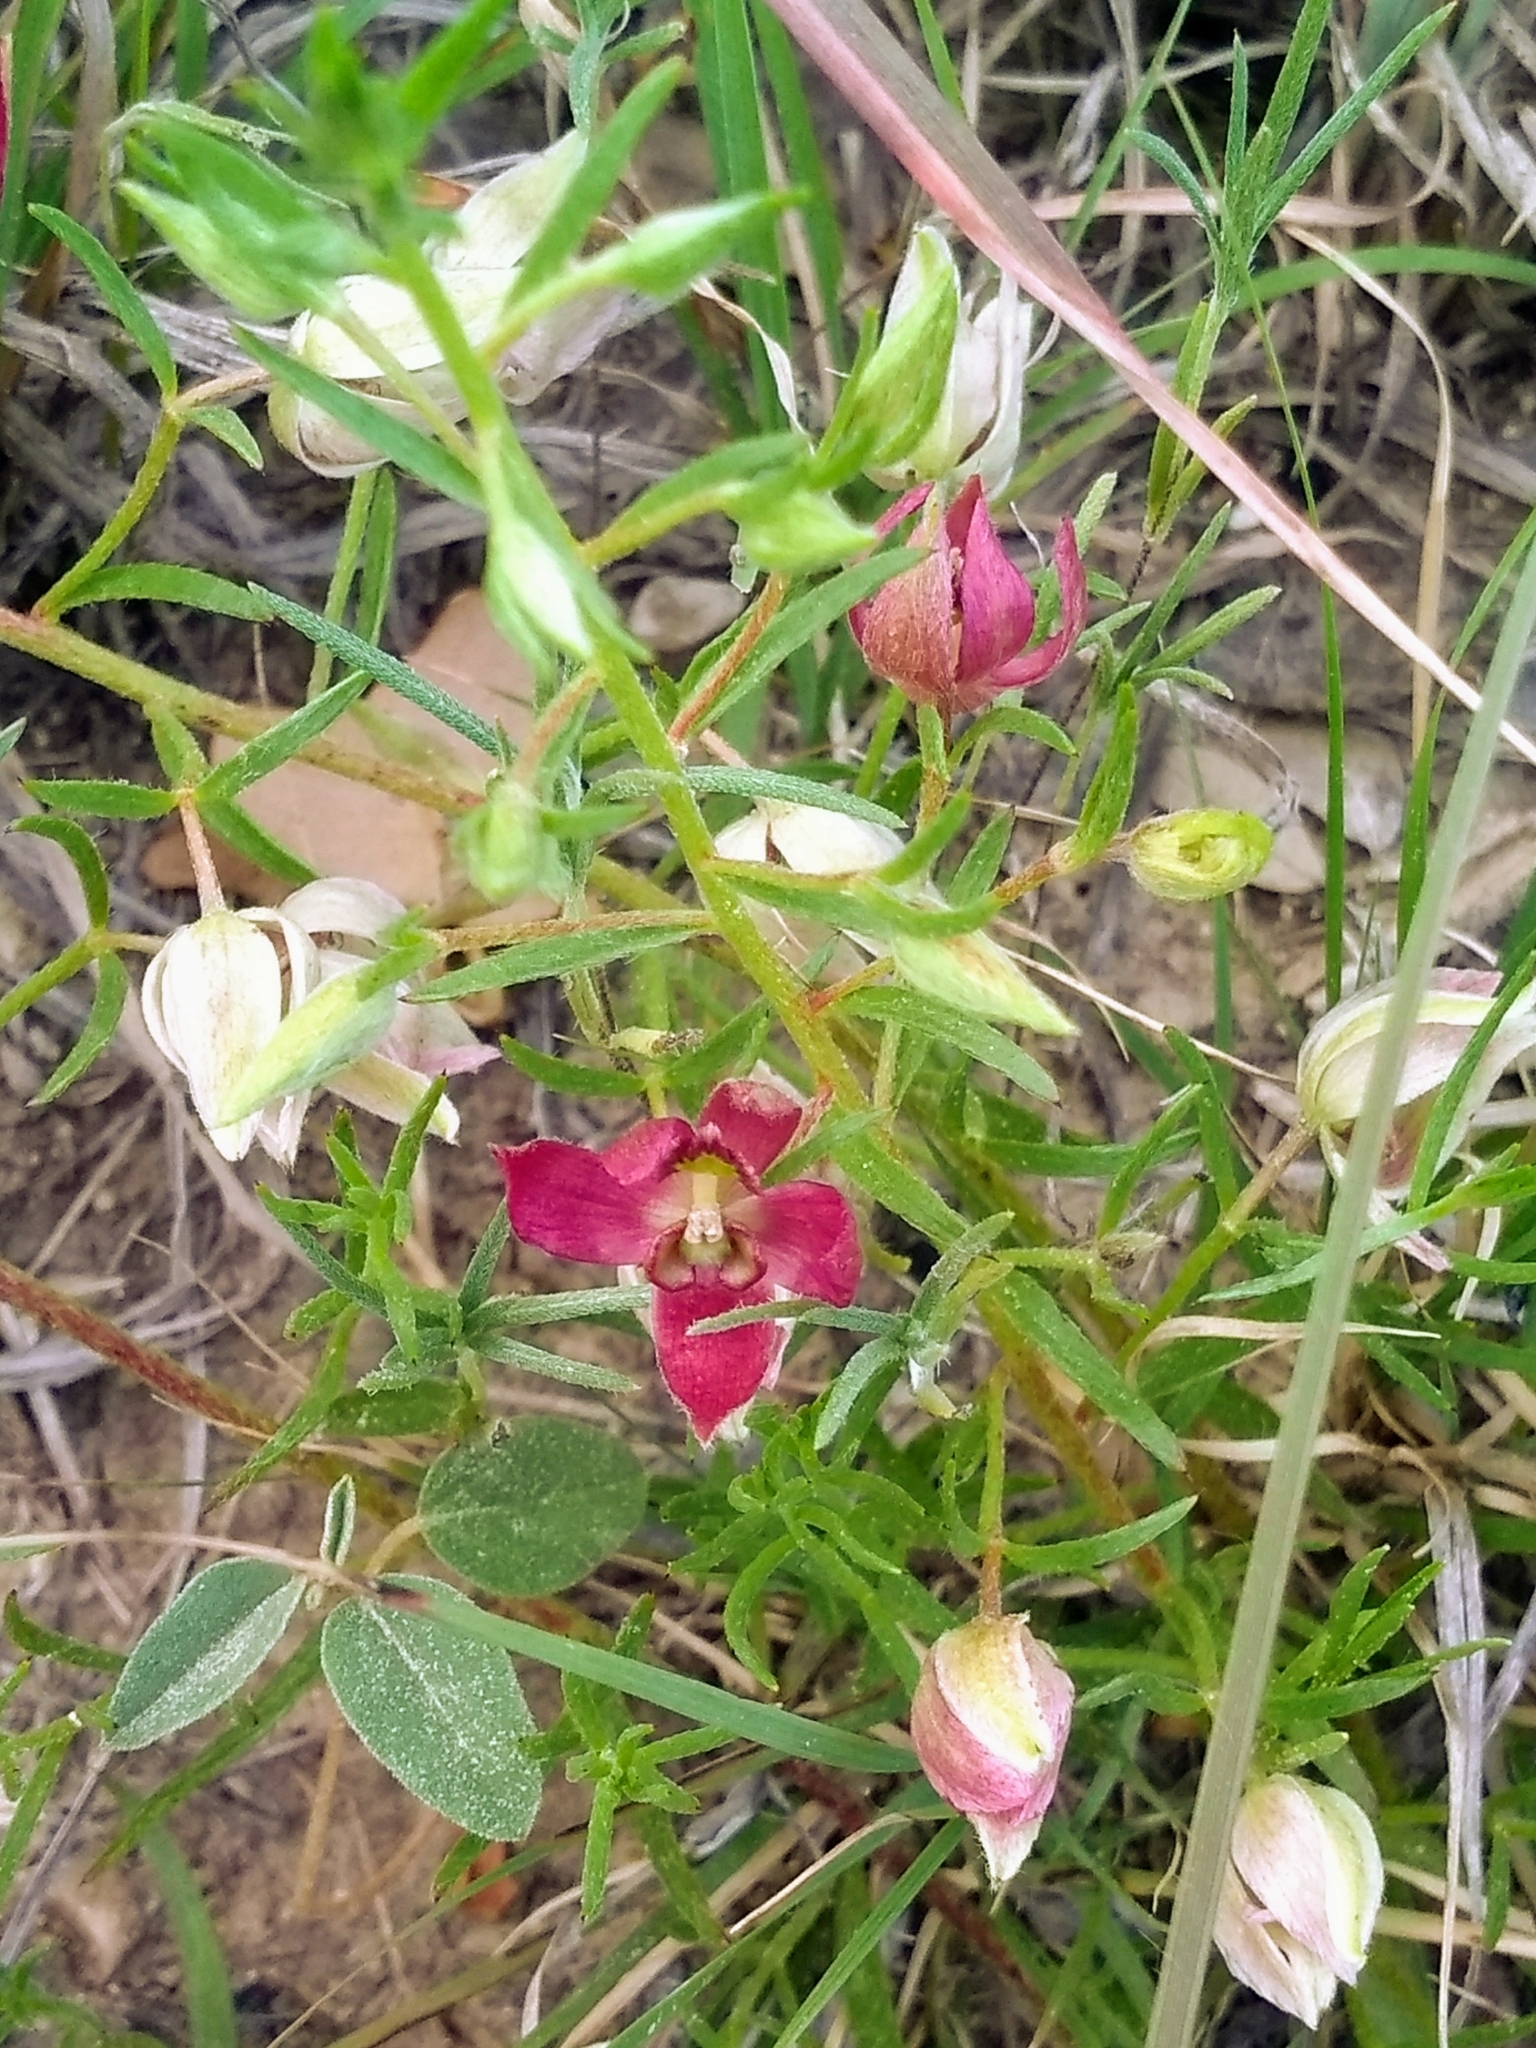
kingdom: Plantae
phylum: Tracheophyta
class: Magnoliopsida
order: Zygophyllales
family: Krameriaceae
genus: Krameria
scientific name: Krameria lanceolata
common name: Ratany
